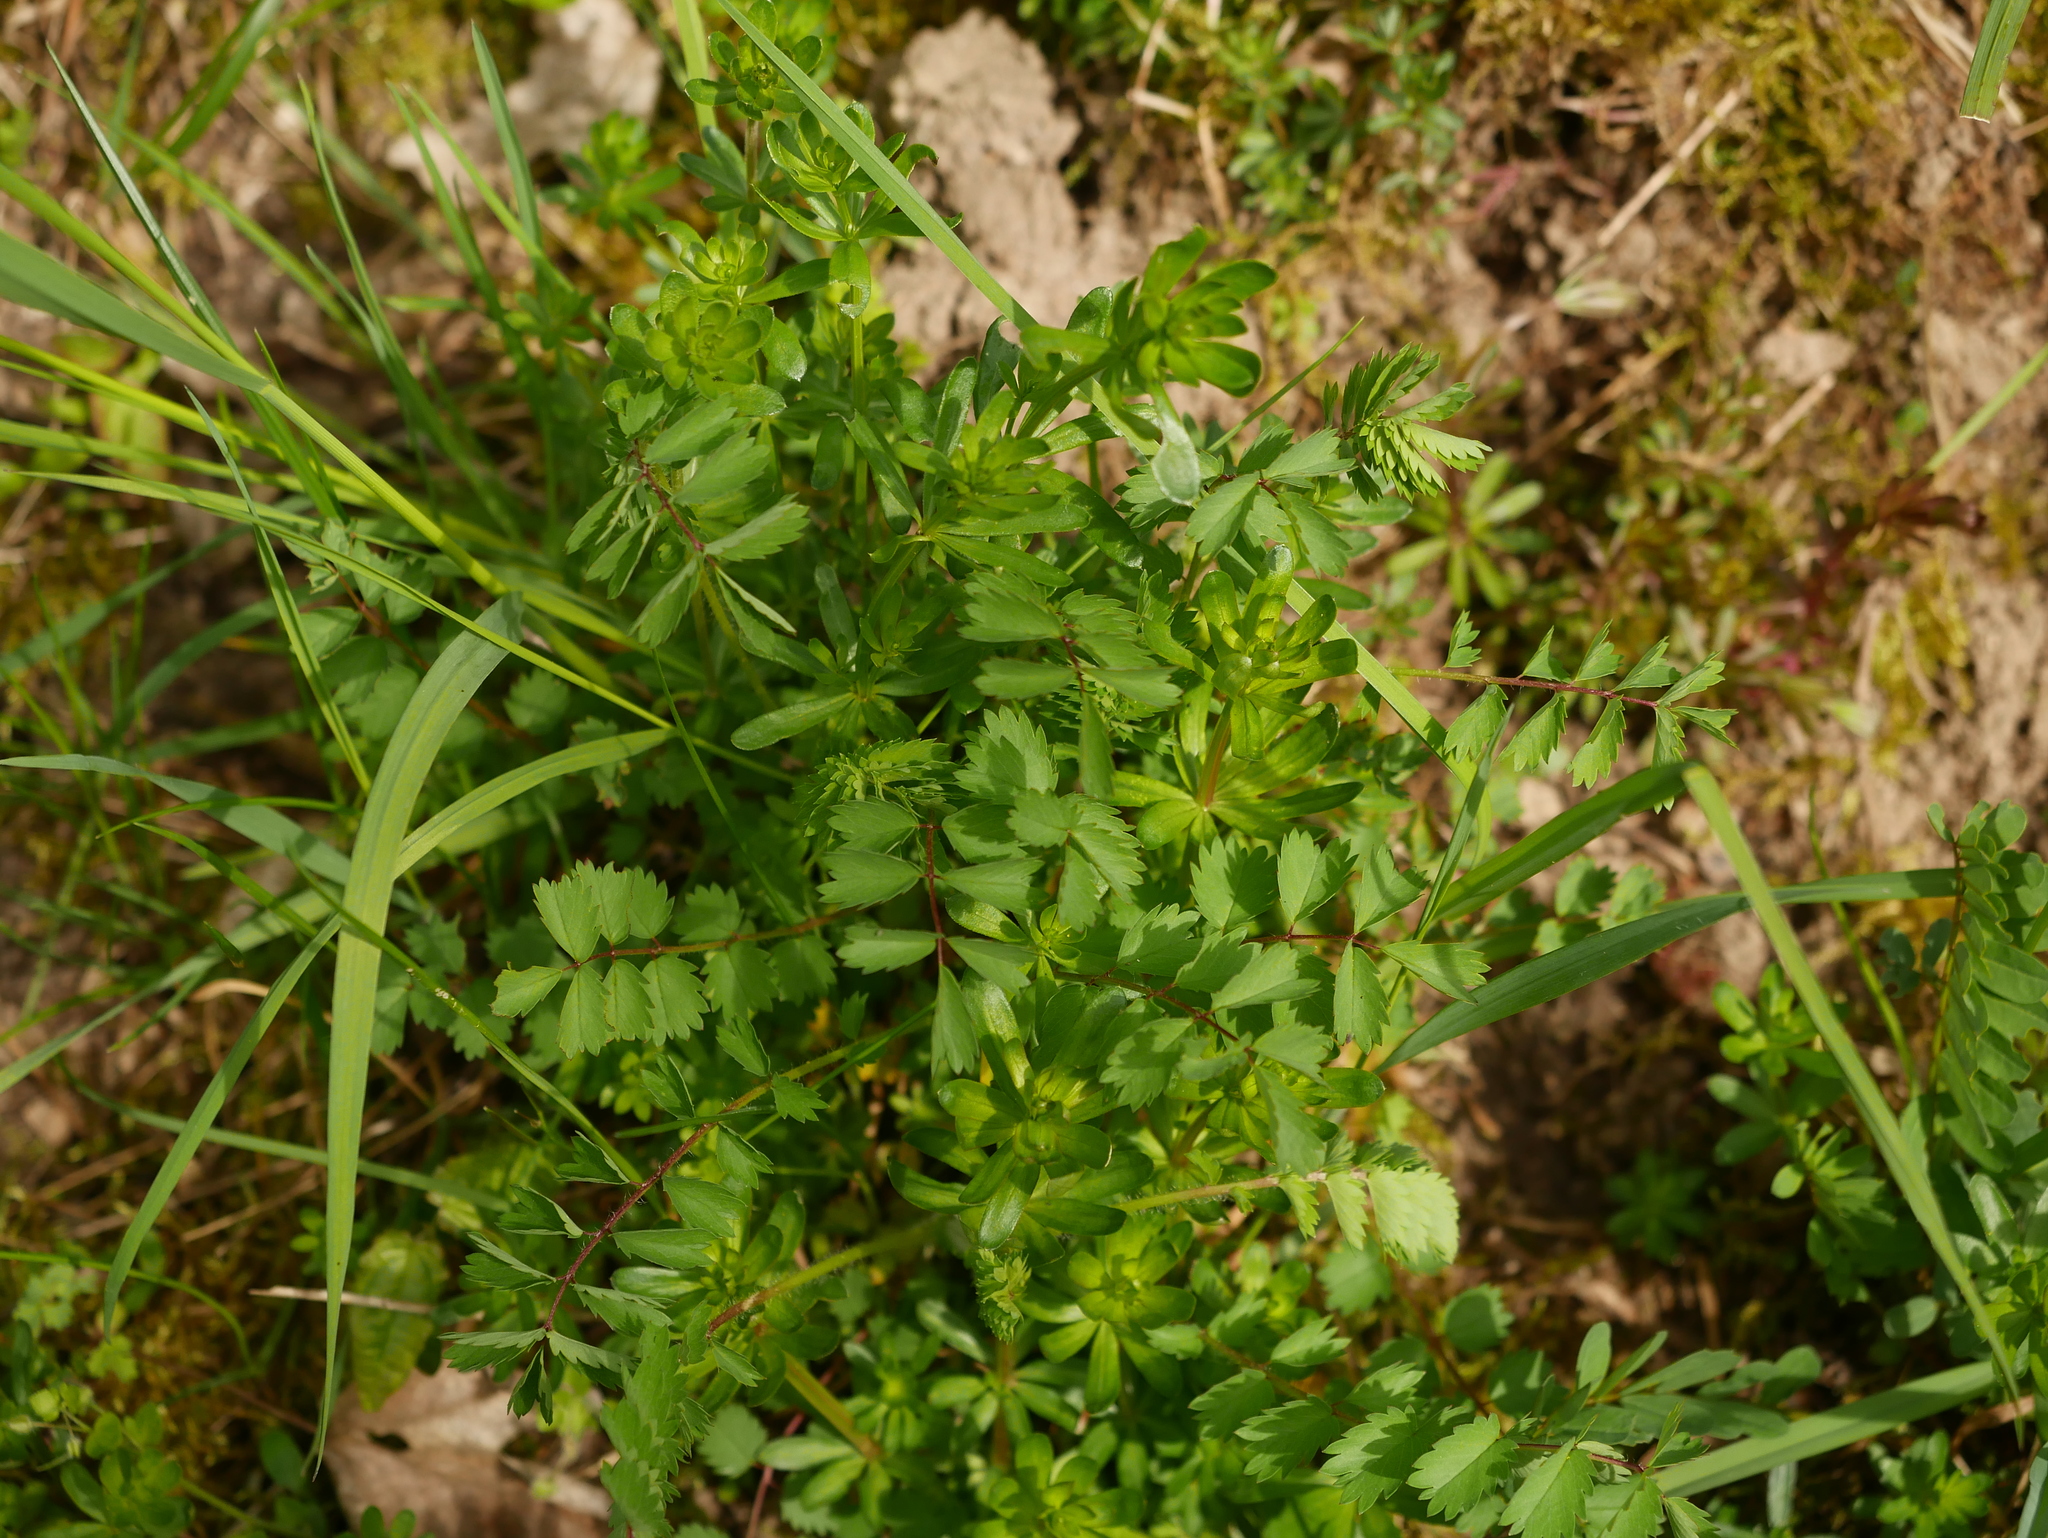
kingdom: Plantae
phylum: Tracheophyta
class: Magnoliopsida
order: Rosales
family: Rosaceae
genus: Poterium
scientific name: Poterium sanguisorba
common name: Salad burnet
